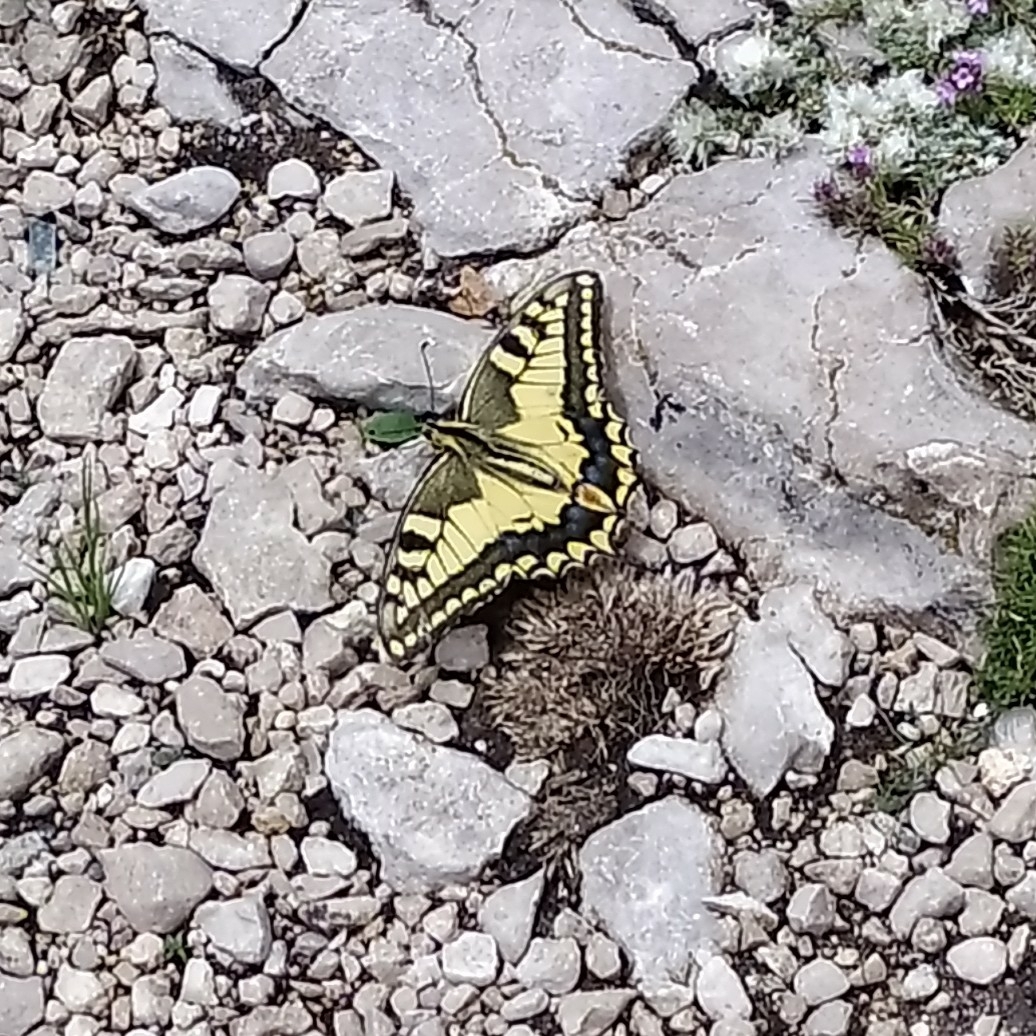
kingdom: Animalia
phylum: Arthropoda
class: Insecta
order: Lepidoptera
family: Papilionidae
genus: Papilio
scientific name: Papilio machaon
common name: Swallowtail
